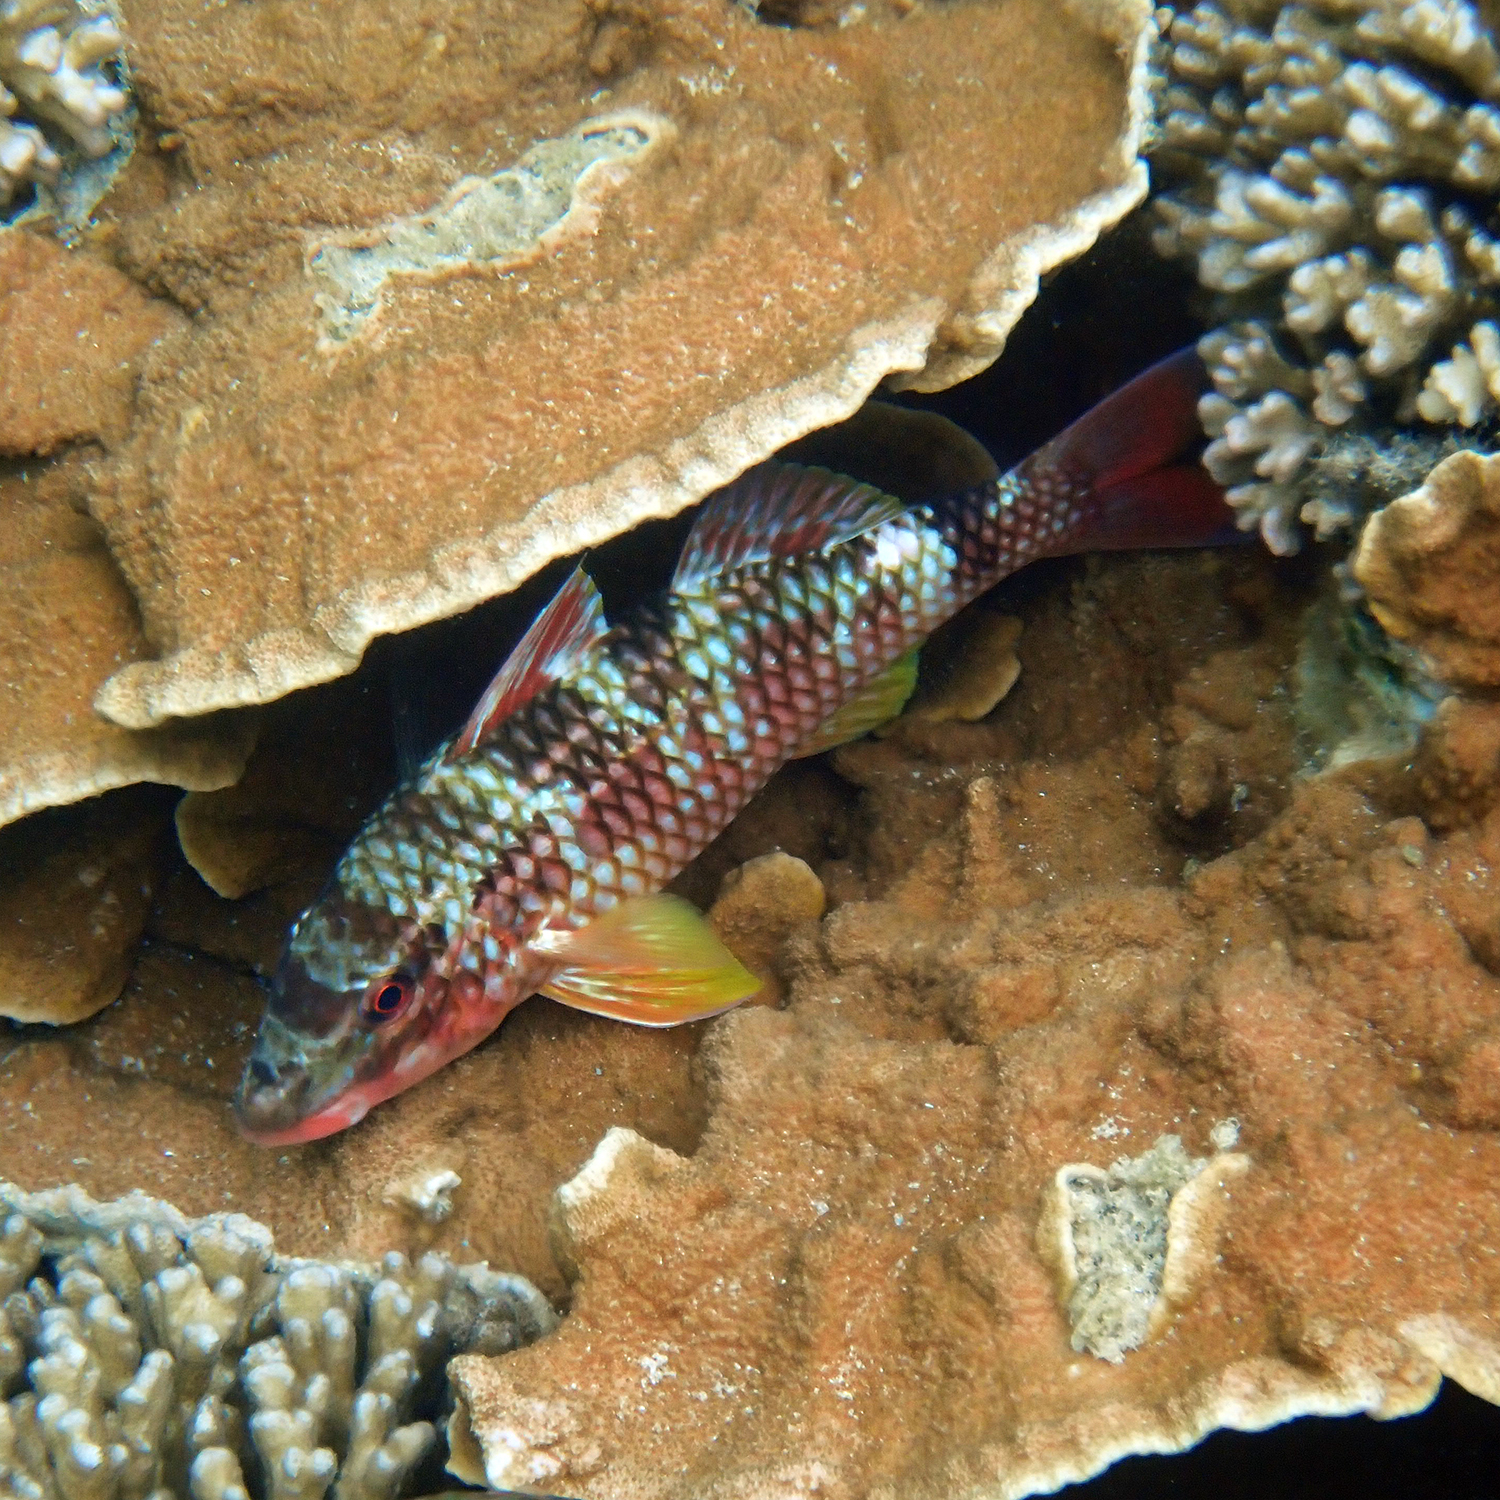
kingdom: Animalia
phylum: Chordata
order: Perciformes
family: Mullidae
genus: Parupeneus
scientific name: Parupeneus ciliatus
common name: White-lined goatfish
